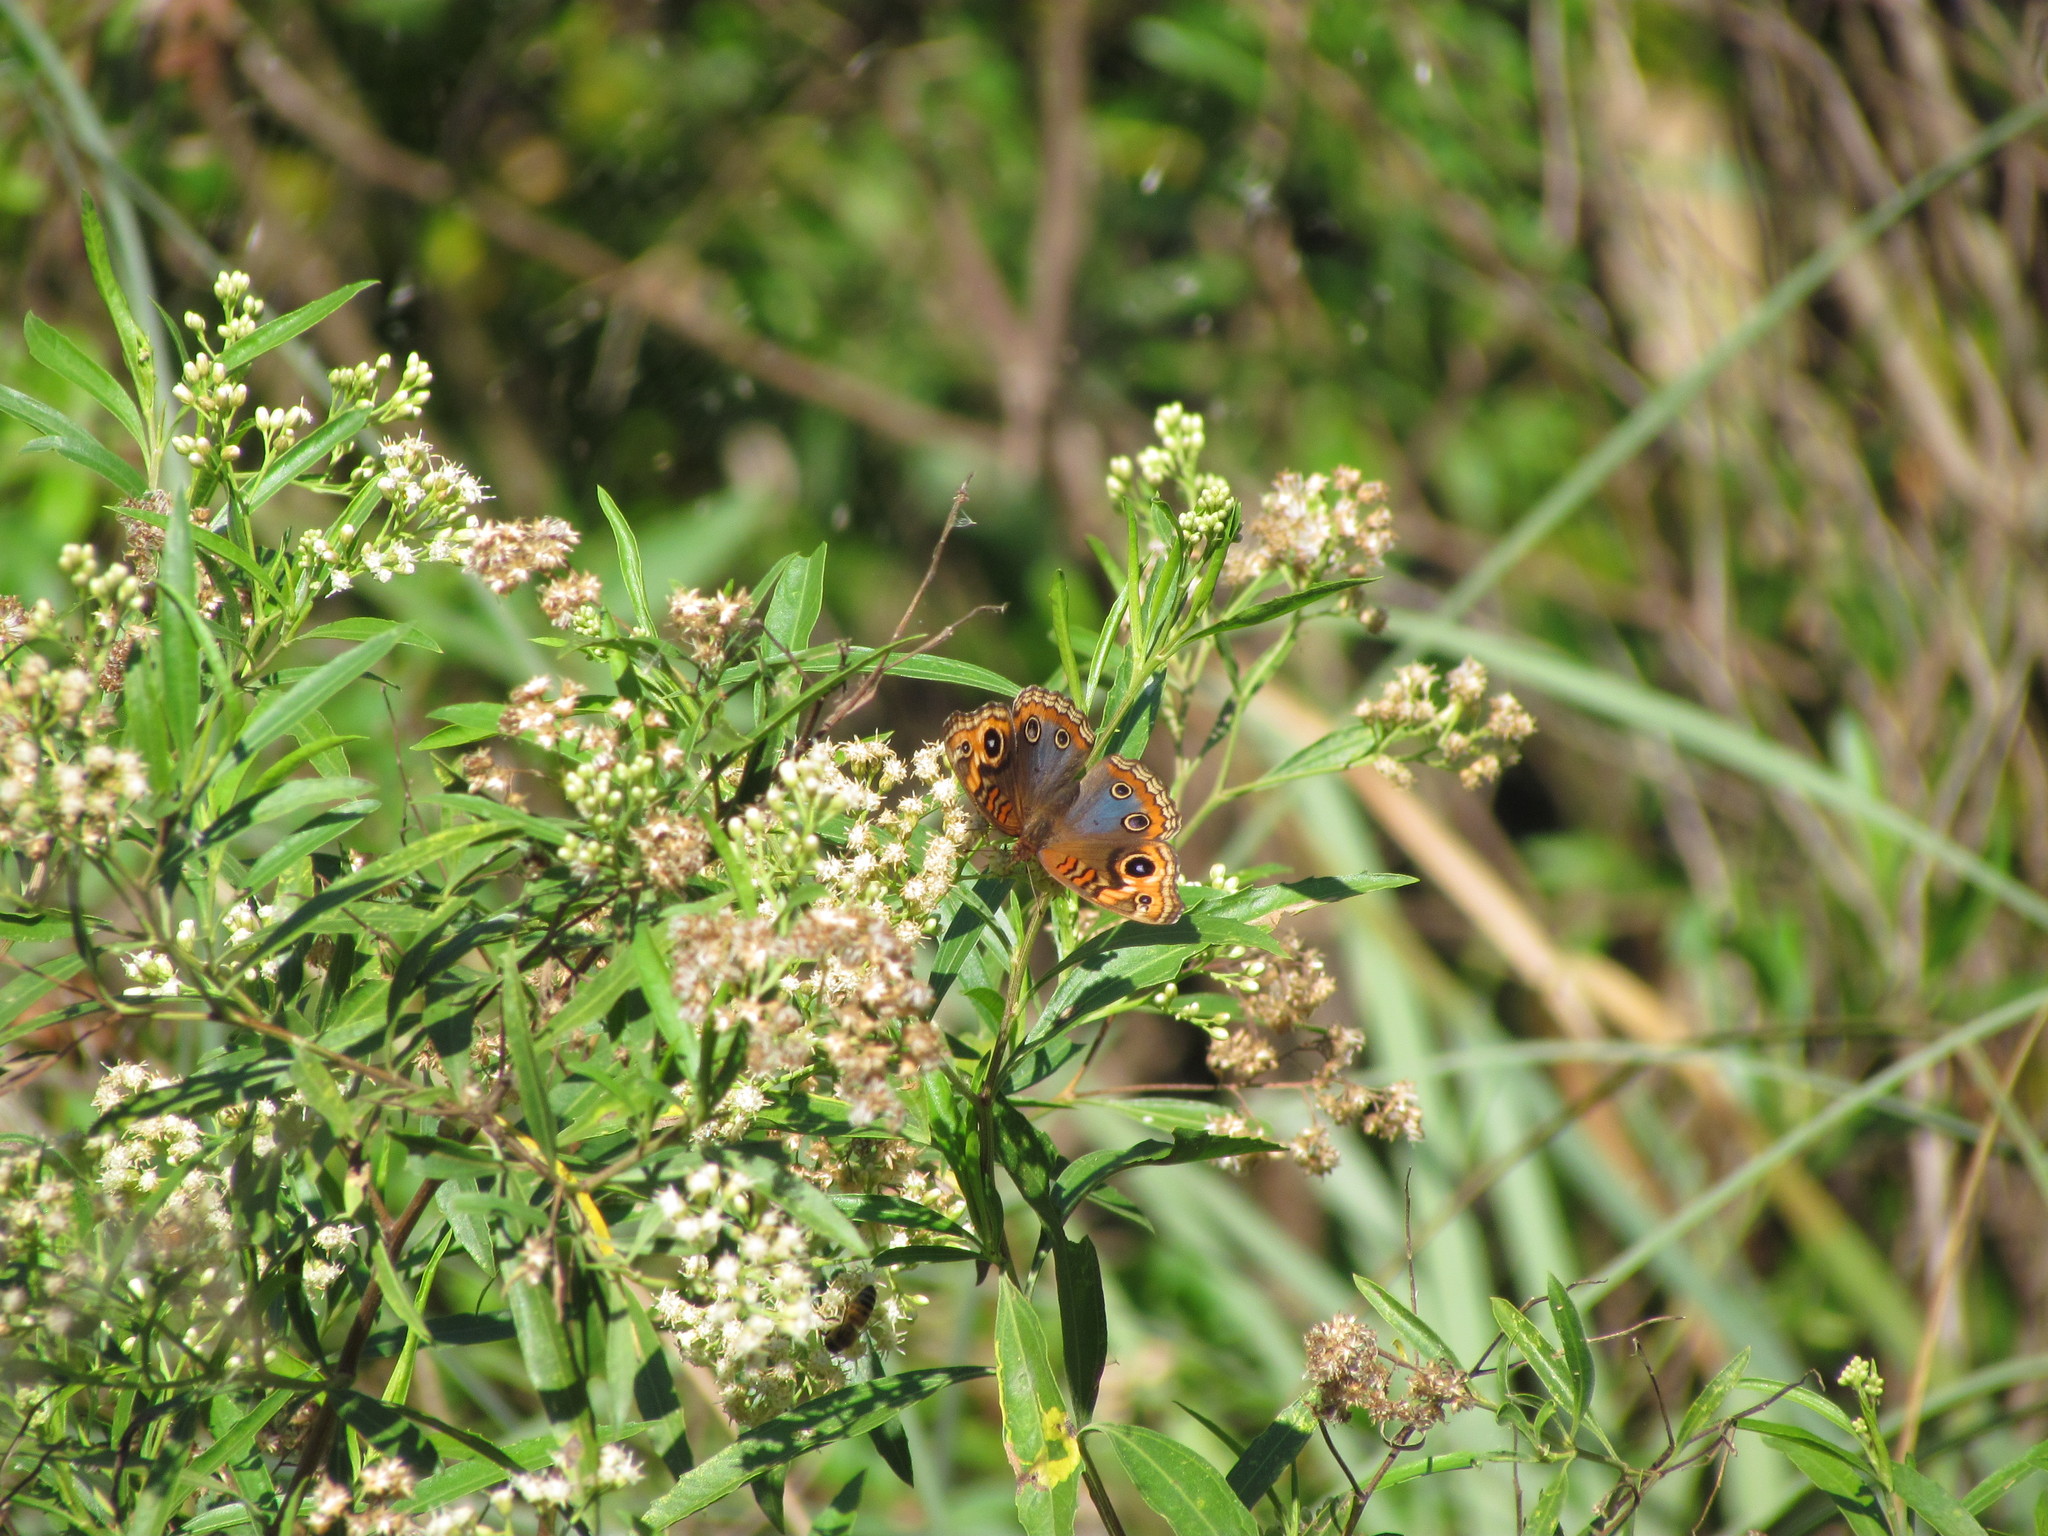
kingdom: Animalia
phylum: Arthropoda
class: Insecta
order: Lepidoptera
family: Nymphalidae
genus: Junonia
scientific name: Junonia lavinia
